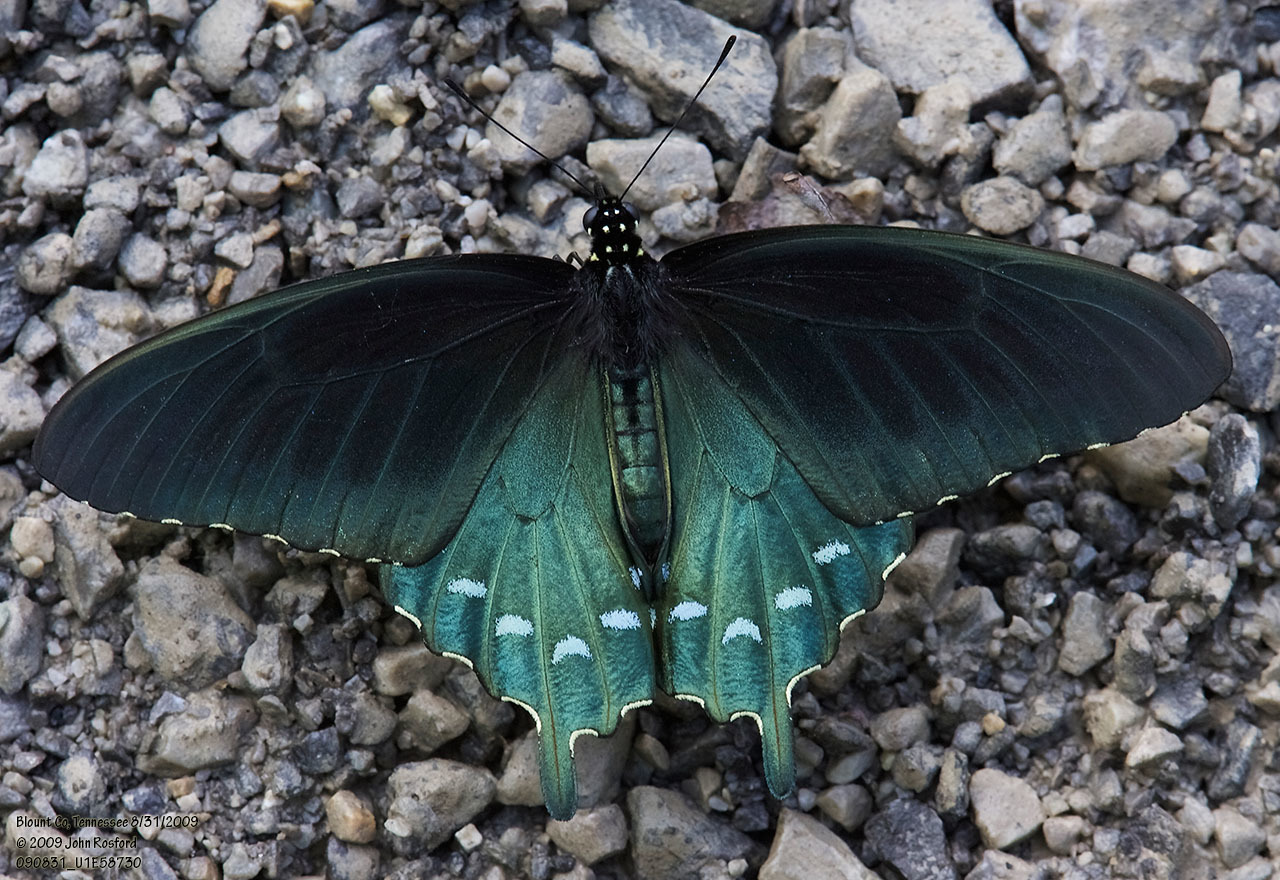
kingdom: Animalia
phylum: Arthropoda
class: Insecta
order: Lepidoptera
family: Papilionidae
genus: Battus
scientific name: Battus philenor
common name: Pipevine swallowtail
